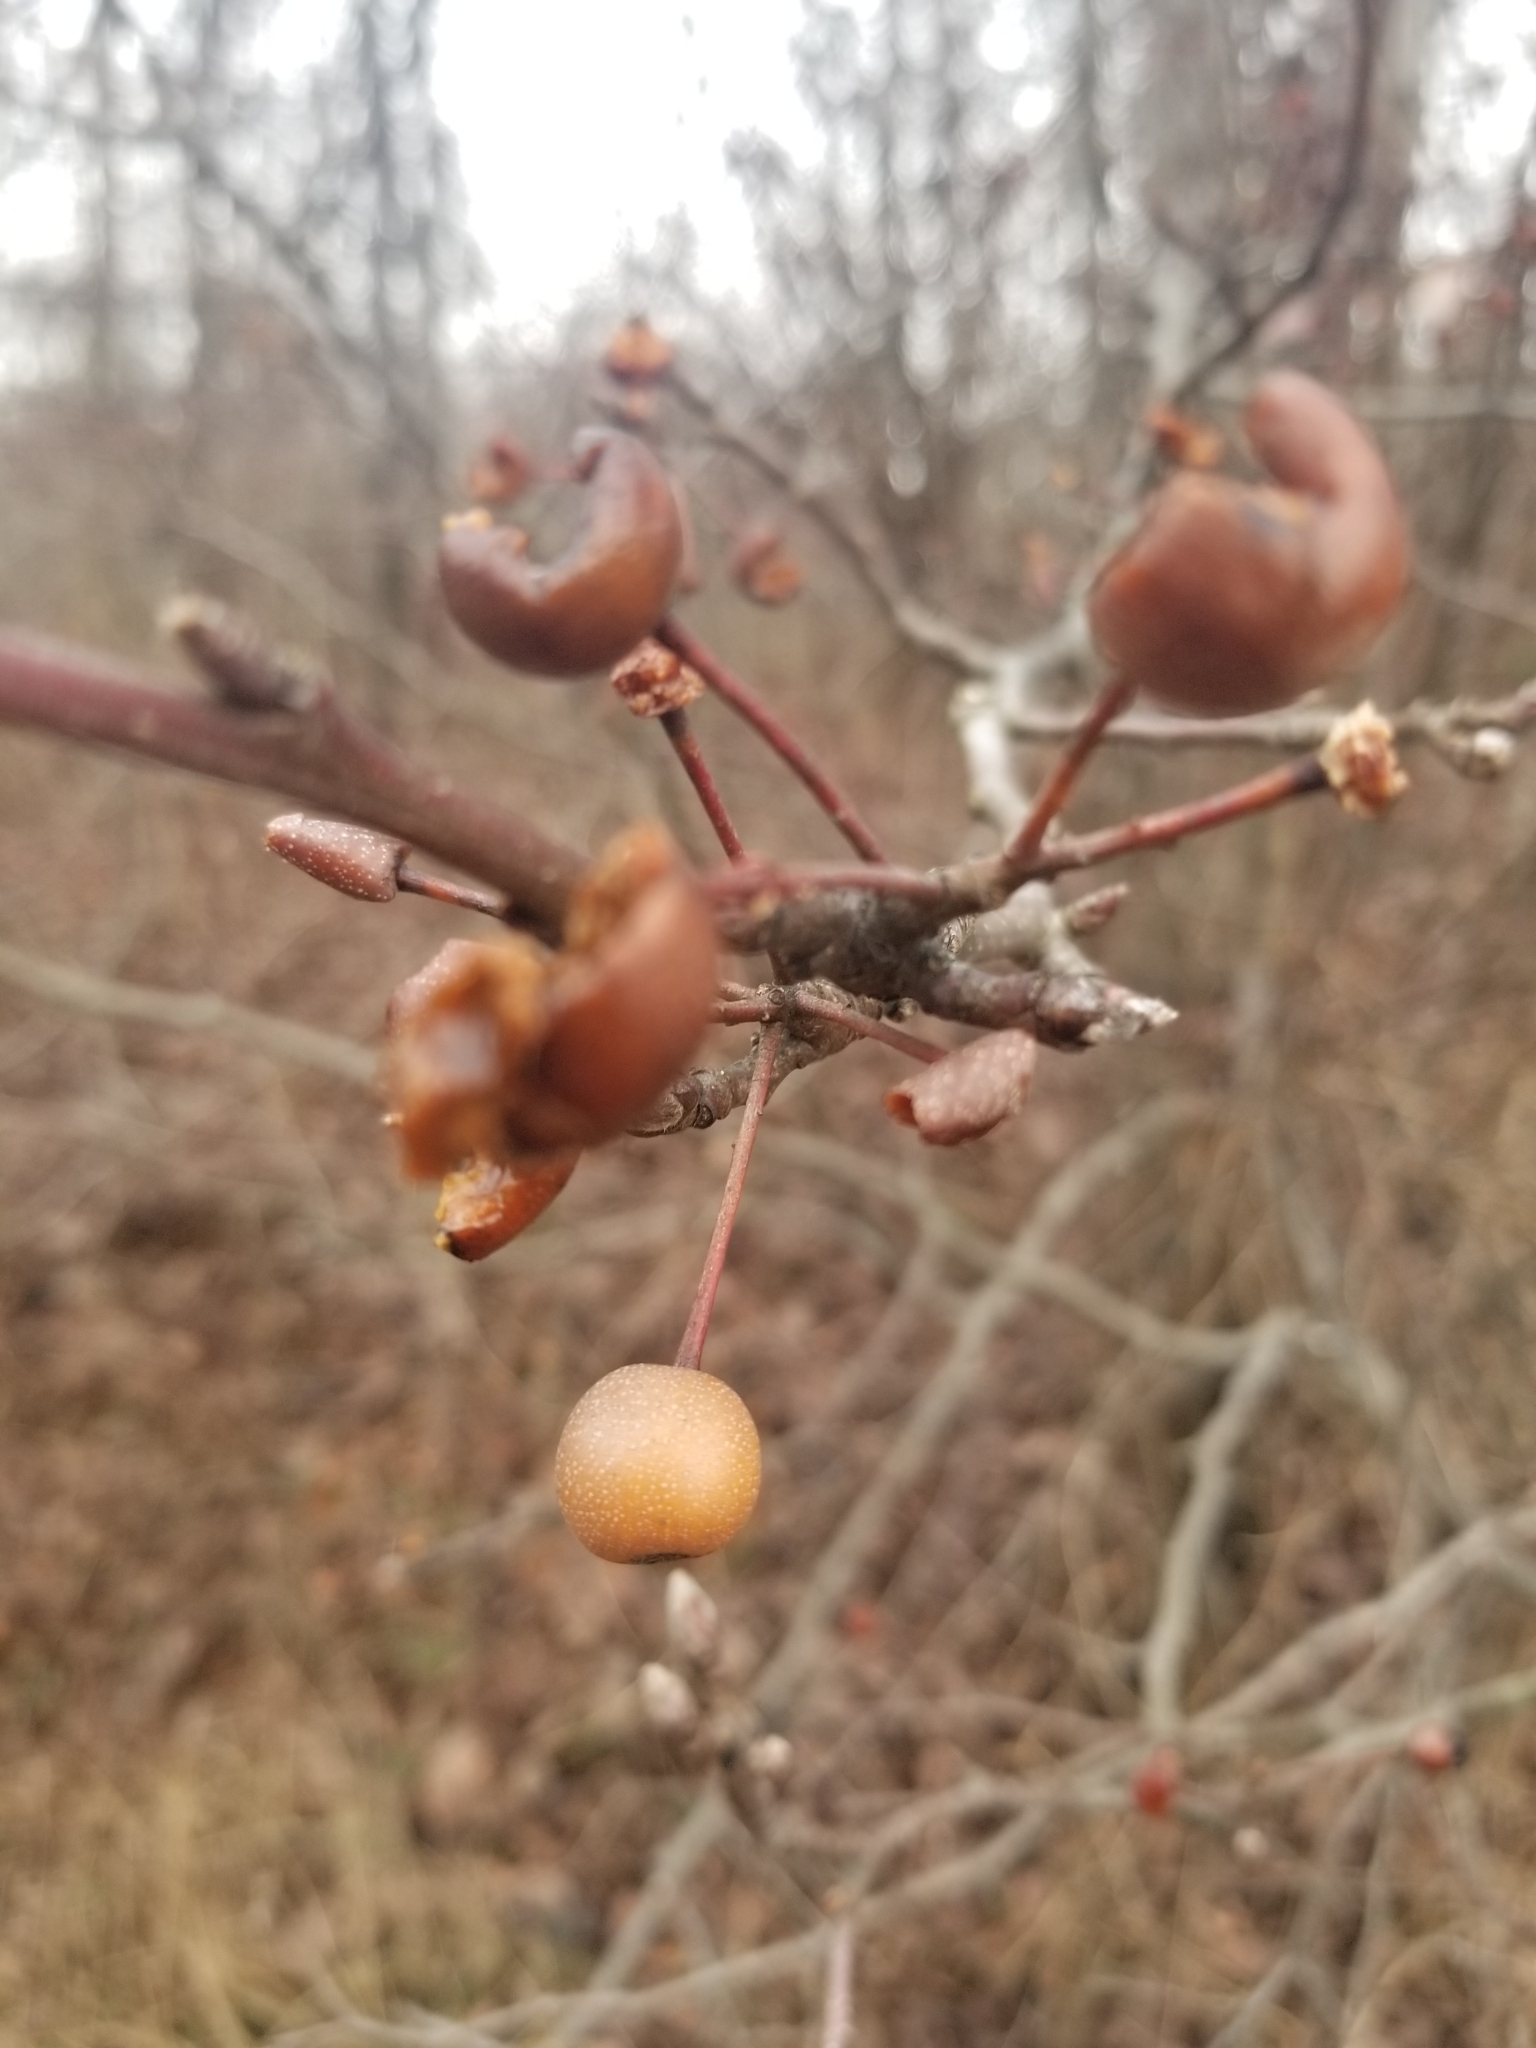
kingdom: Plantae
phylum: Tracheophyta
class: Magnoliopsida
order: Rosales
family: Rosaceae
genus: Pyrus
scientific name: Pyrus calleryana
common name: Callery pear
